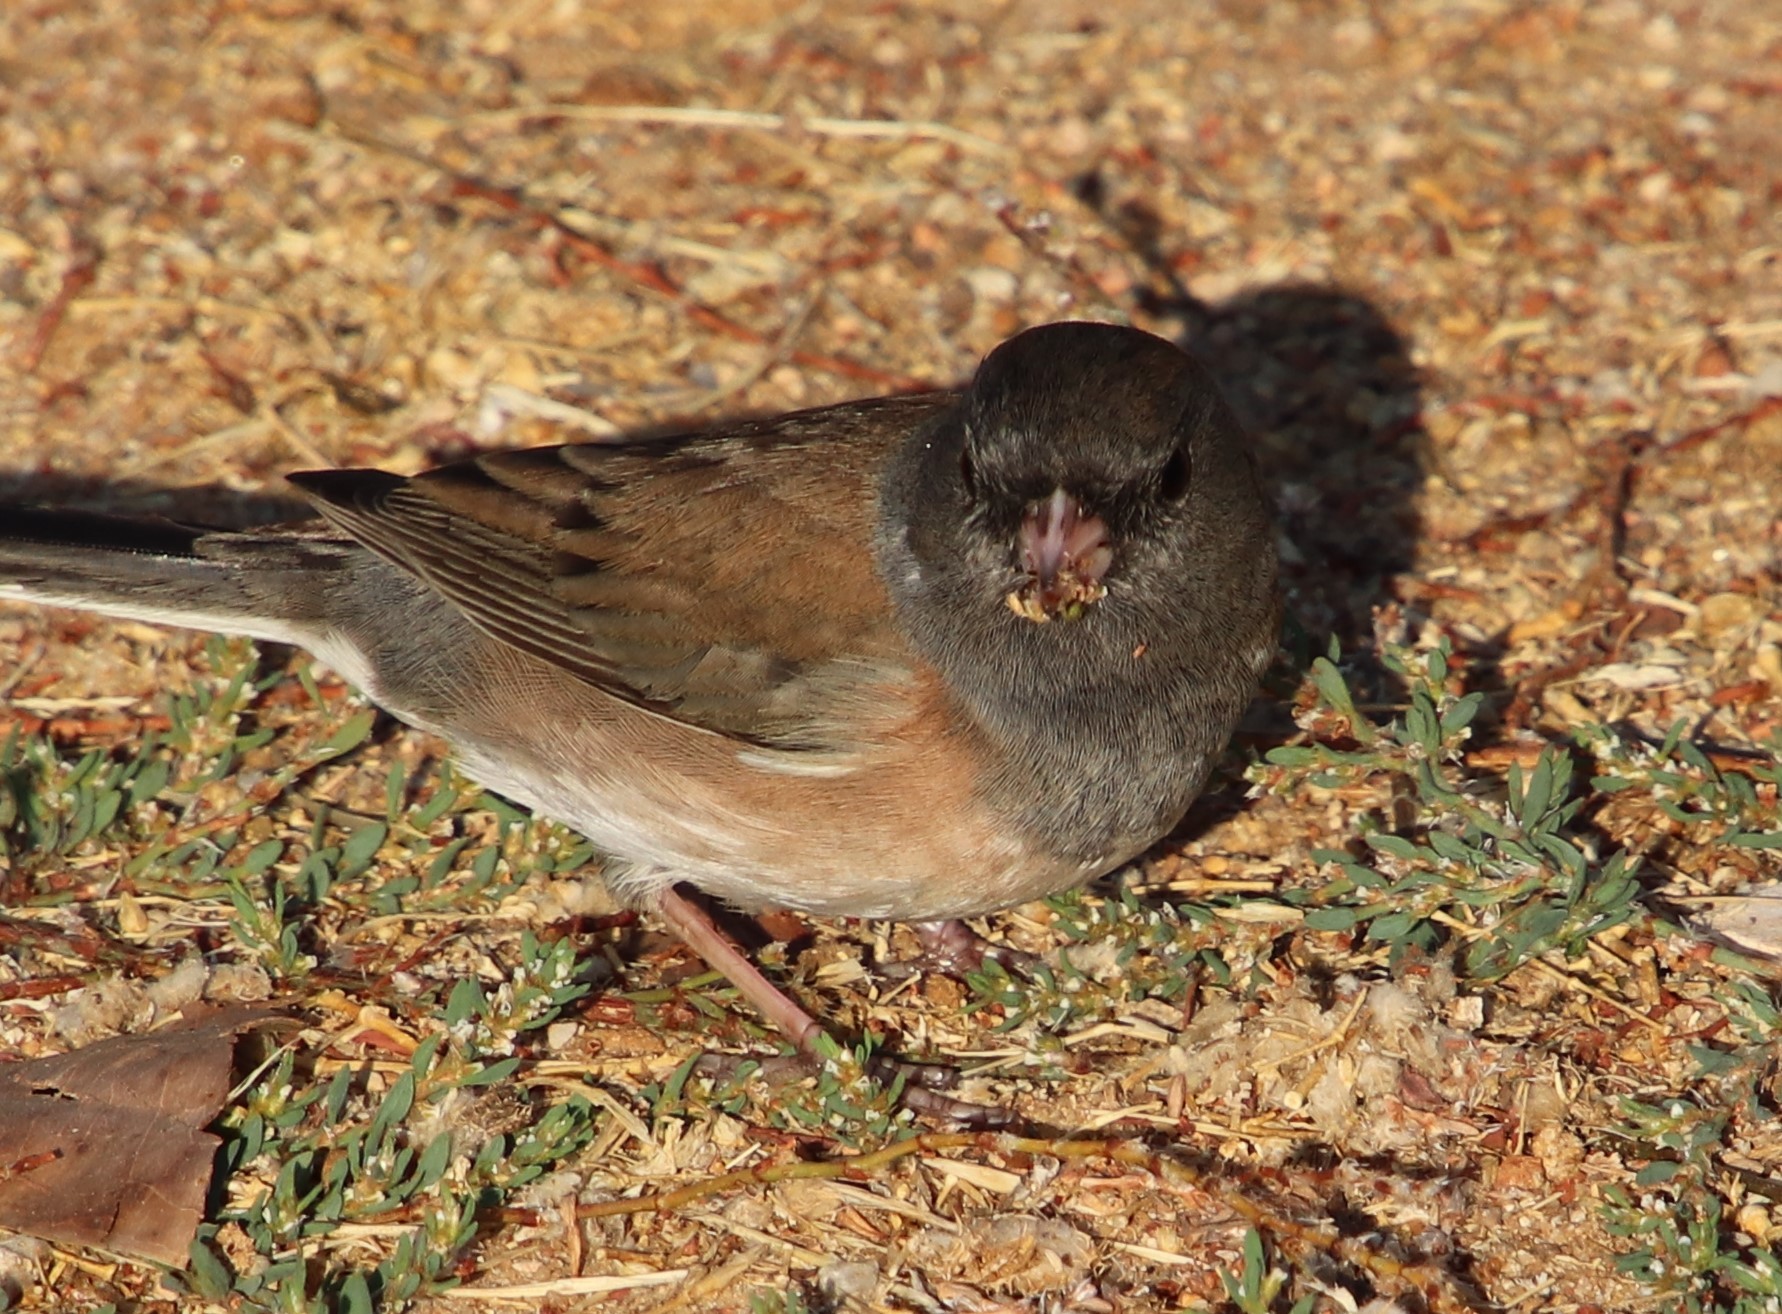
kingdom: Animalia
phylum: Chordata
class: Aves
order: Passeriformes
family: Passerellidae
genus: Junco
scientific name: Junco hyemalis
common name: Dark-eyed junco
